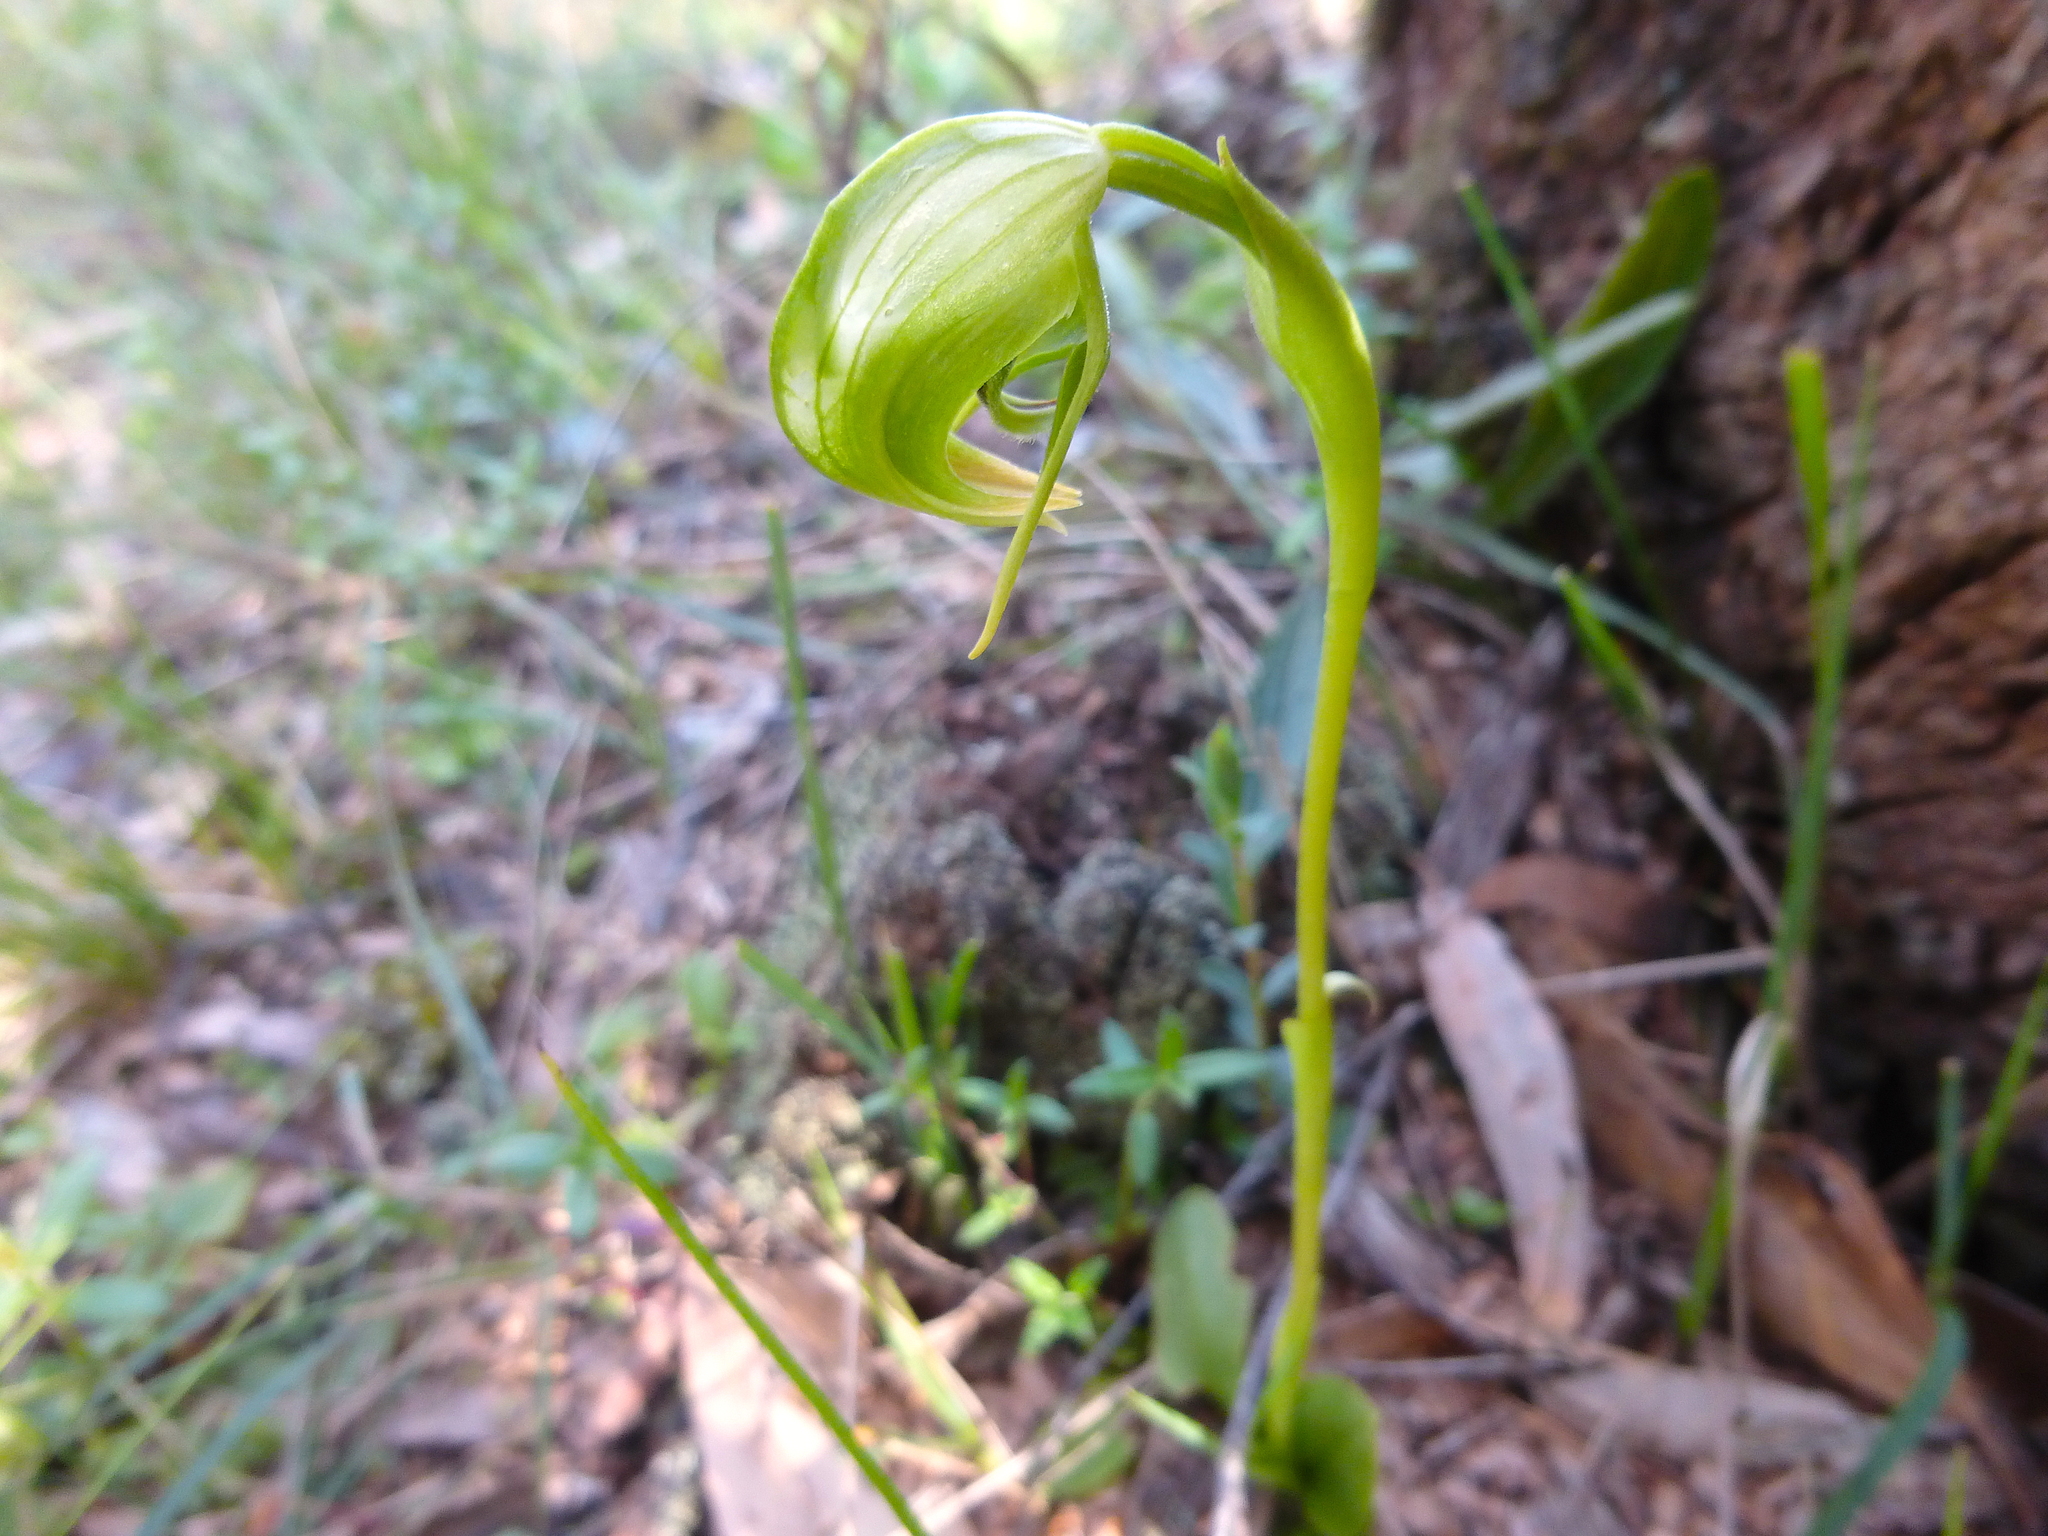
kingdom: Plantae
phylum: Tracheophyta
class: Liliopsida
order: Asparagales
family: Orchidaceae
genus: Pterostylis
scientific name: Pterostylis nutans
